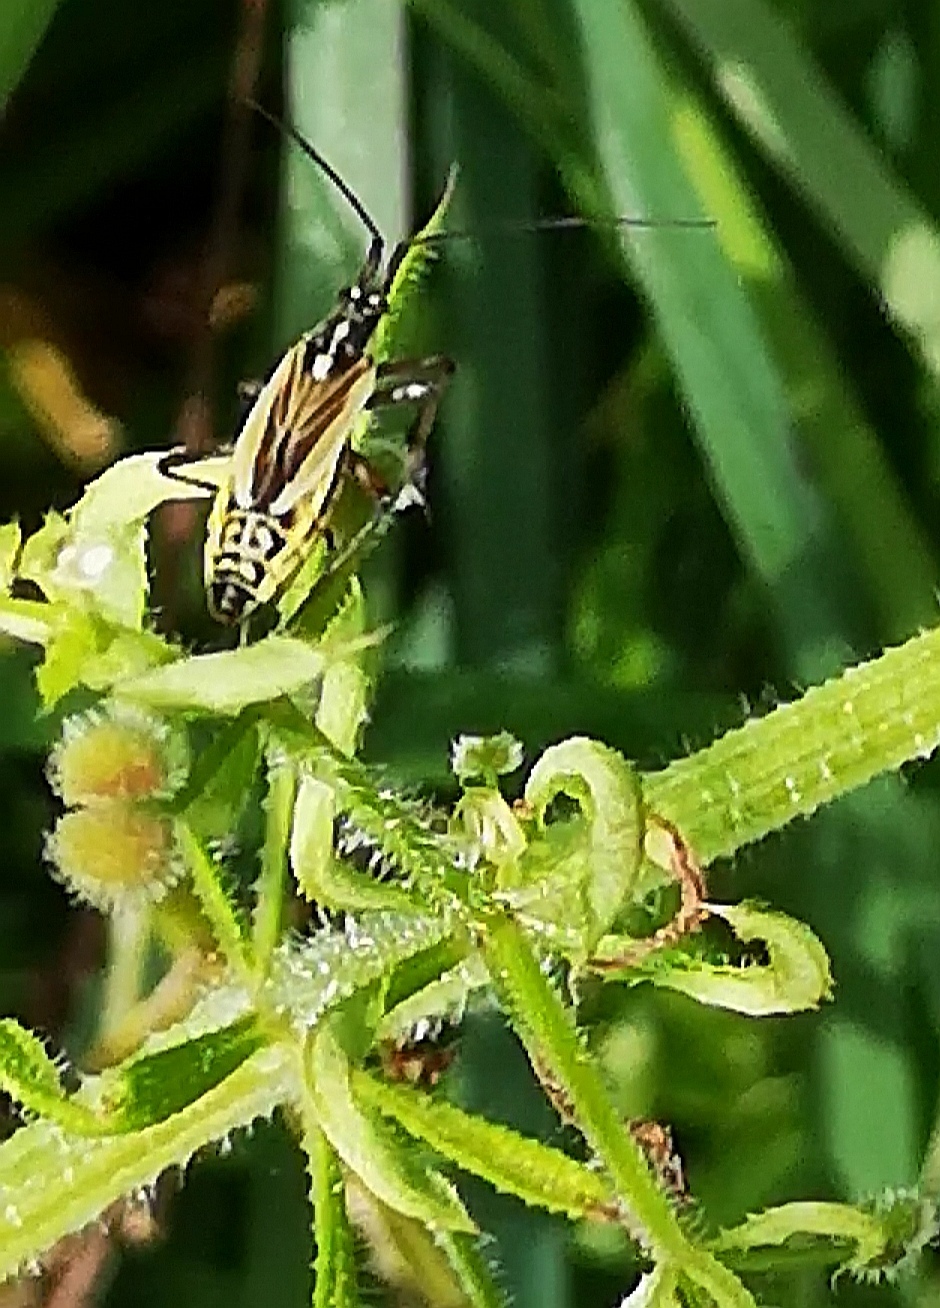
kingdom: Animalia
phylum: Arthropoda
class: Insecta
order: Hemiptera
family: Miridae
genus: Leptopterna
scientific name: Leptopterna dolabrata
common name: Meadow plant bug
